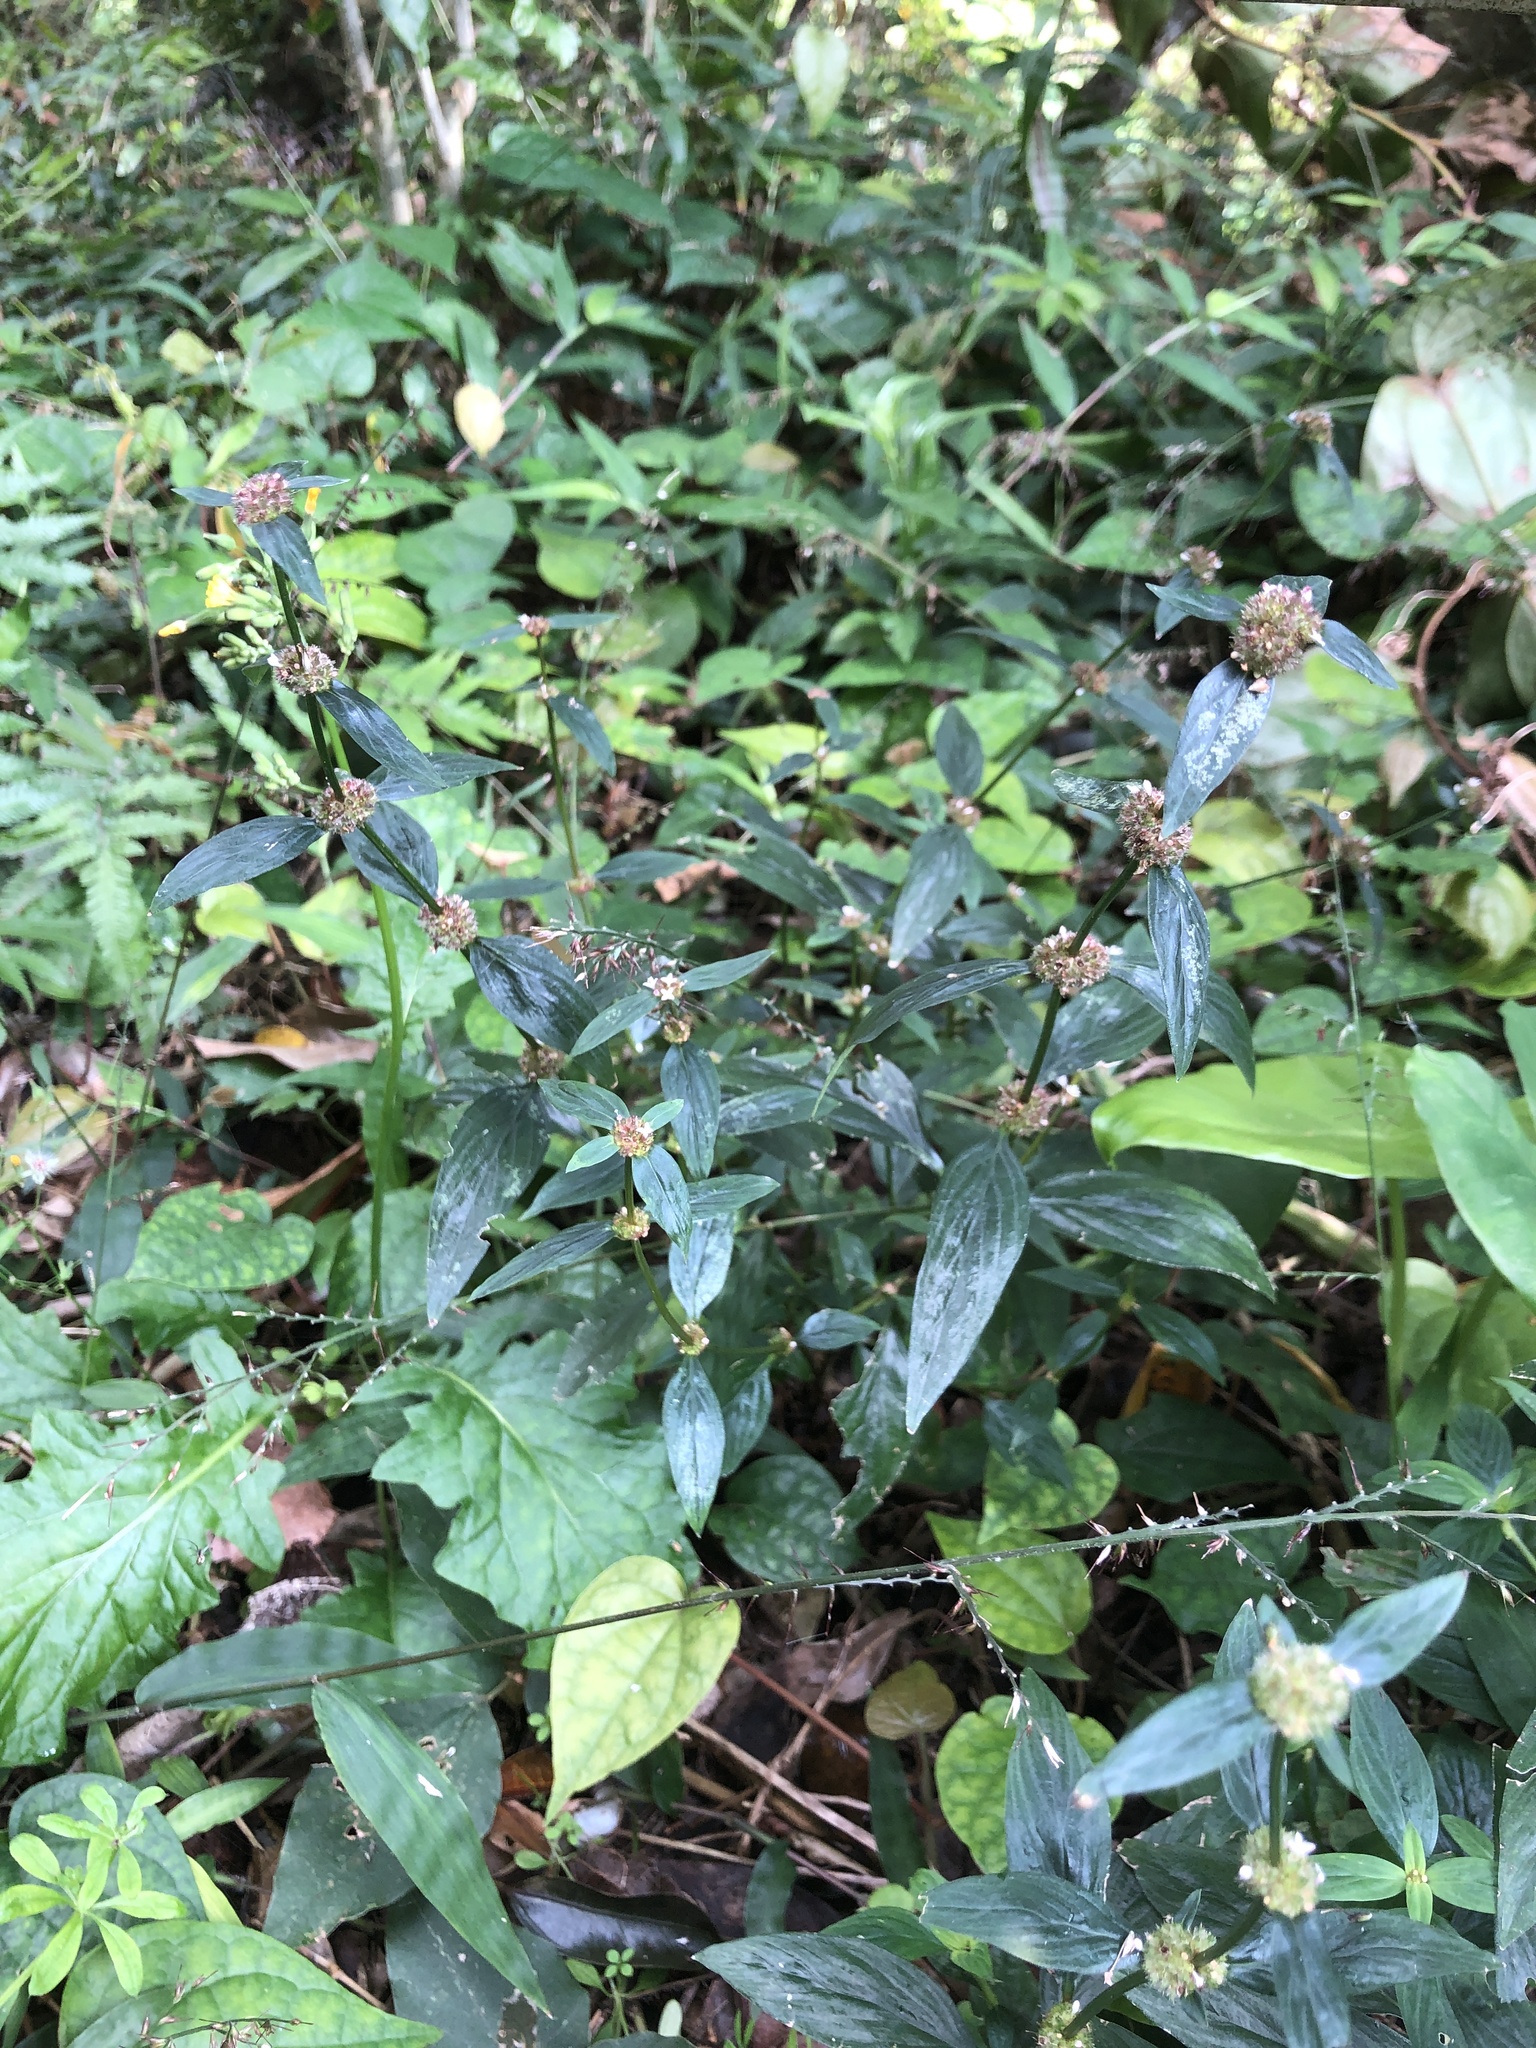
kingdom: Plantae
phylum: Tracheophyta
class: Magnoliopsida
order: Gentianales
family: Rubiaceae
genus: Spermacoce
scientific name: Spermacoce remota
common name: Woodland false buttonweed
